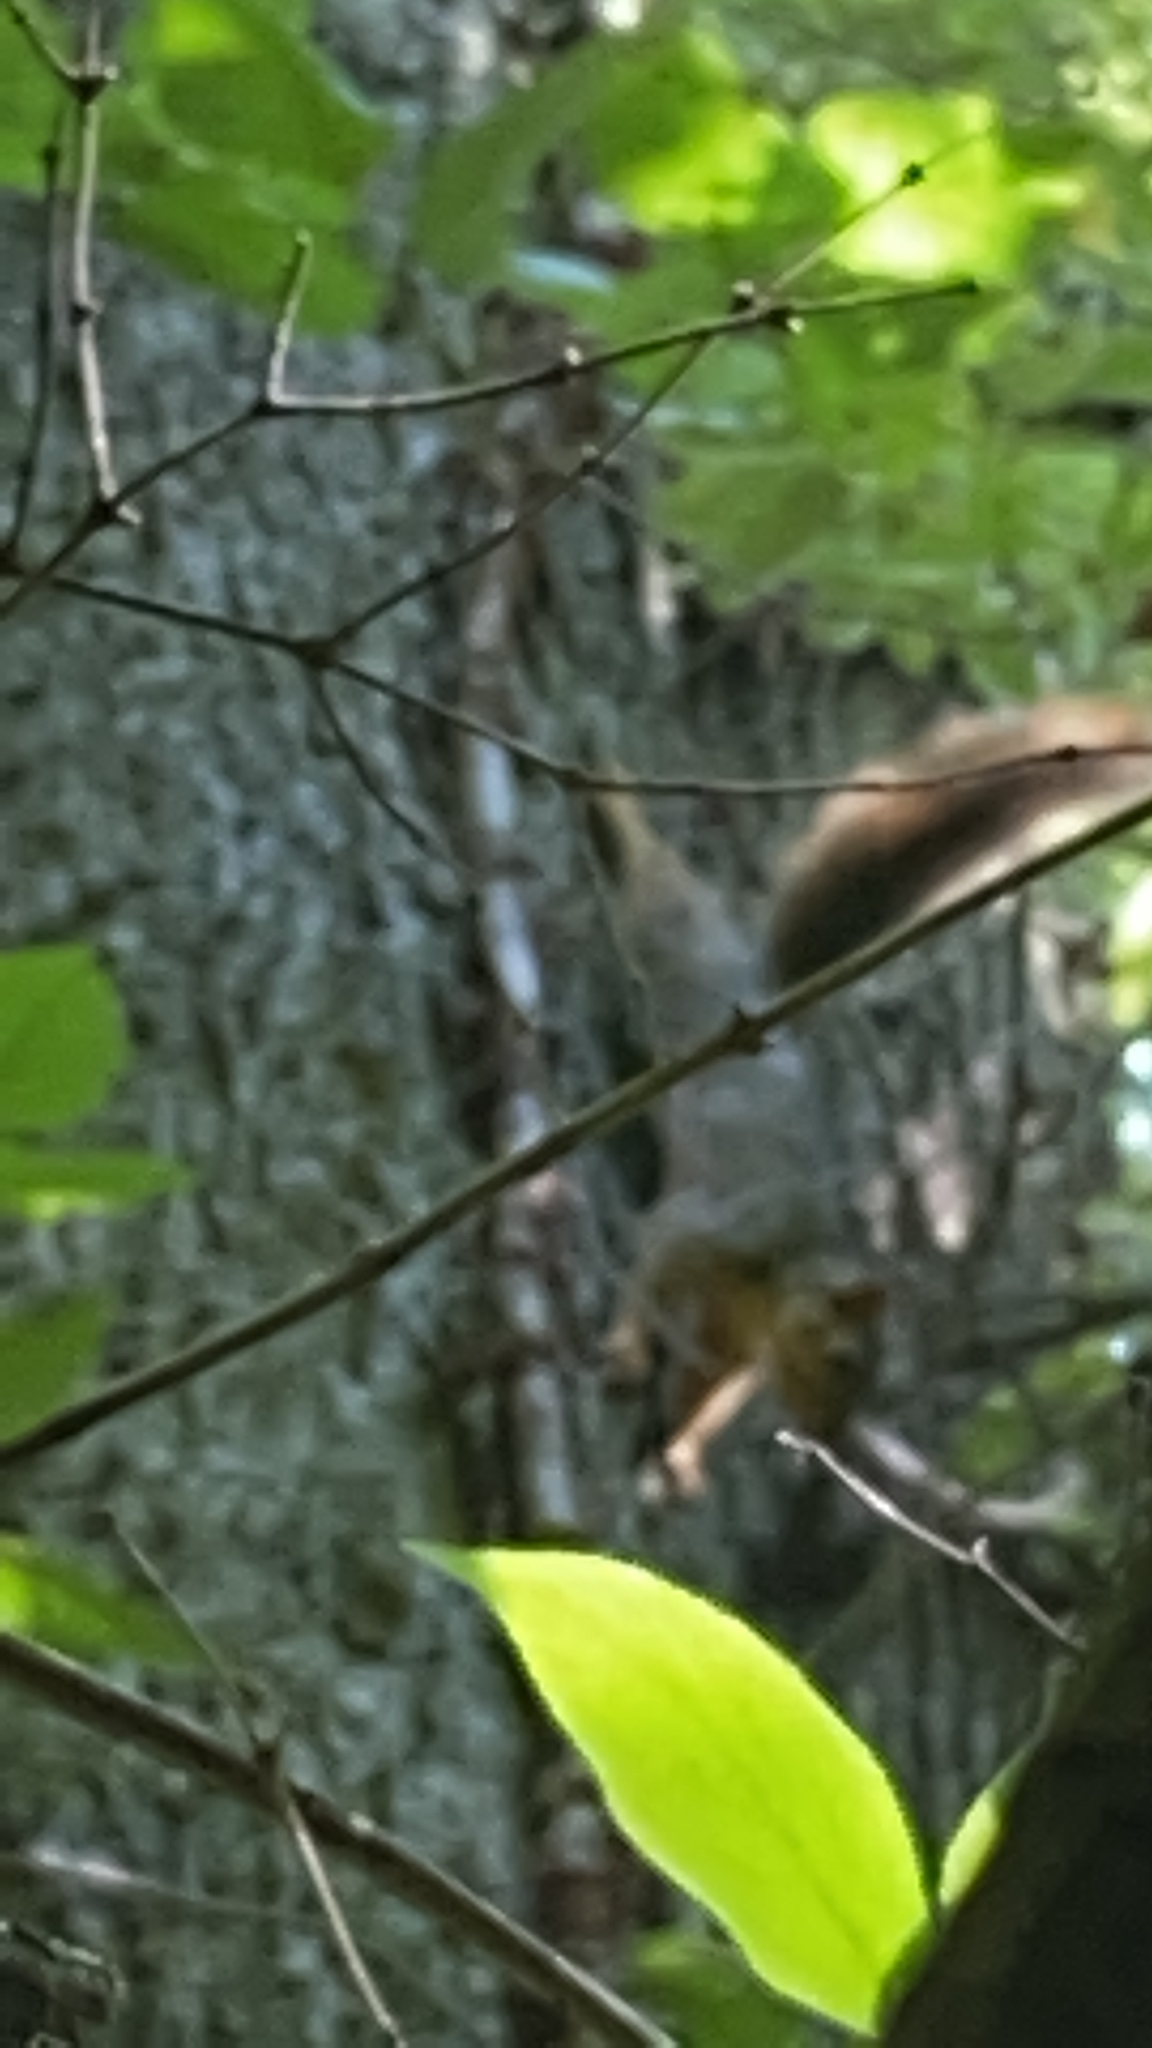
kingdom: Animalia
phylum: Chordata
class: Mammalia
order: Rodentia
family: Sciuridae
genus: Sciurus
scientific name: Sciurus niger
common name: Fox squirrel
